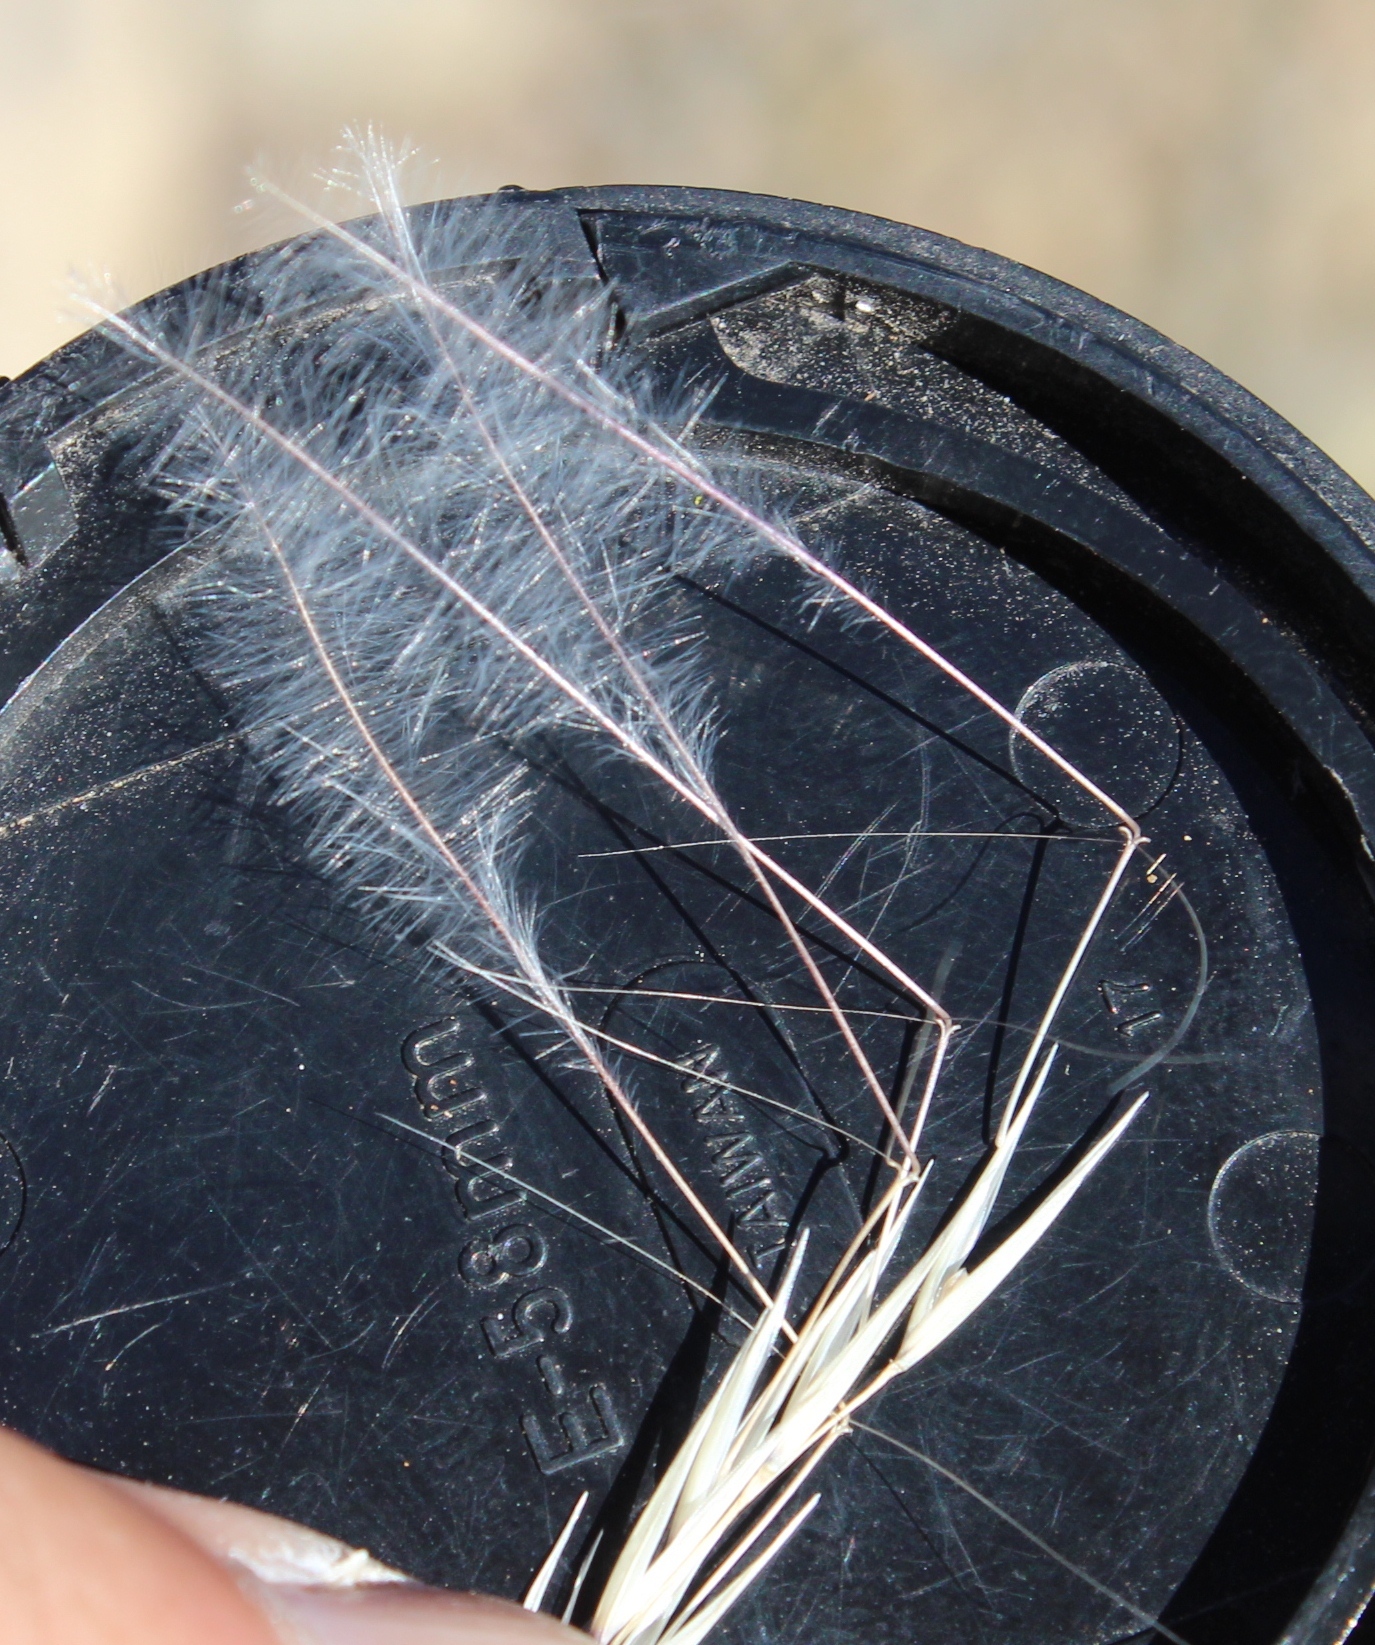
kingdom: Plantae
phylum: Tracheophyta
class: Liliopsida
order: Poales
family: Poaceae
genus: Stipagrostis
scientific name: Stipagrostis uniplumis
